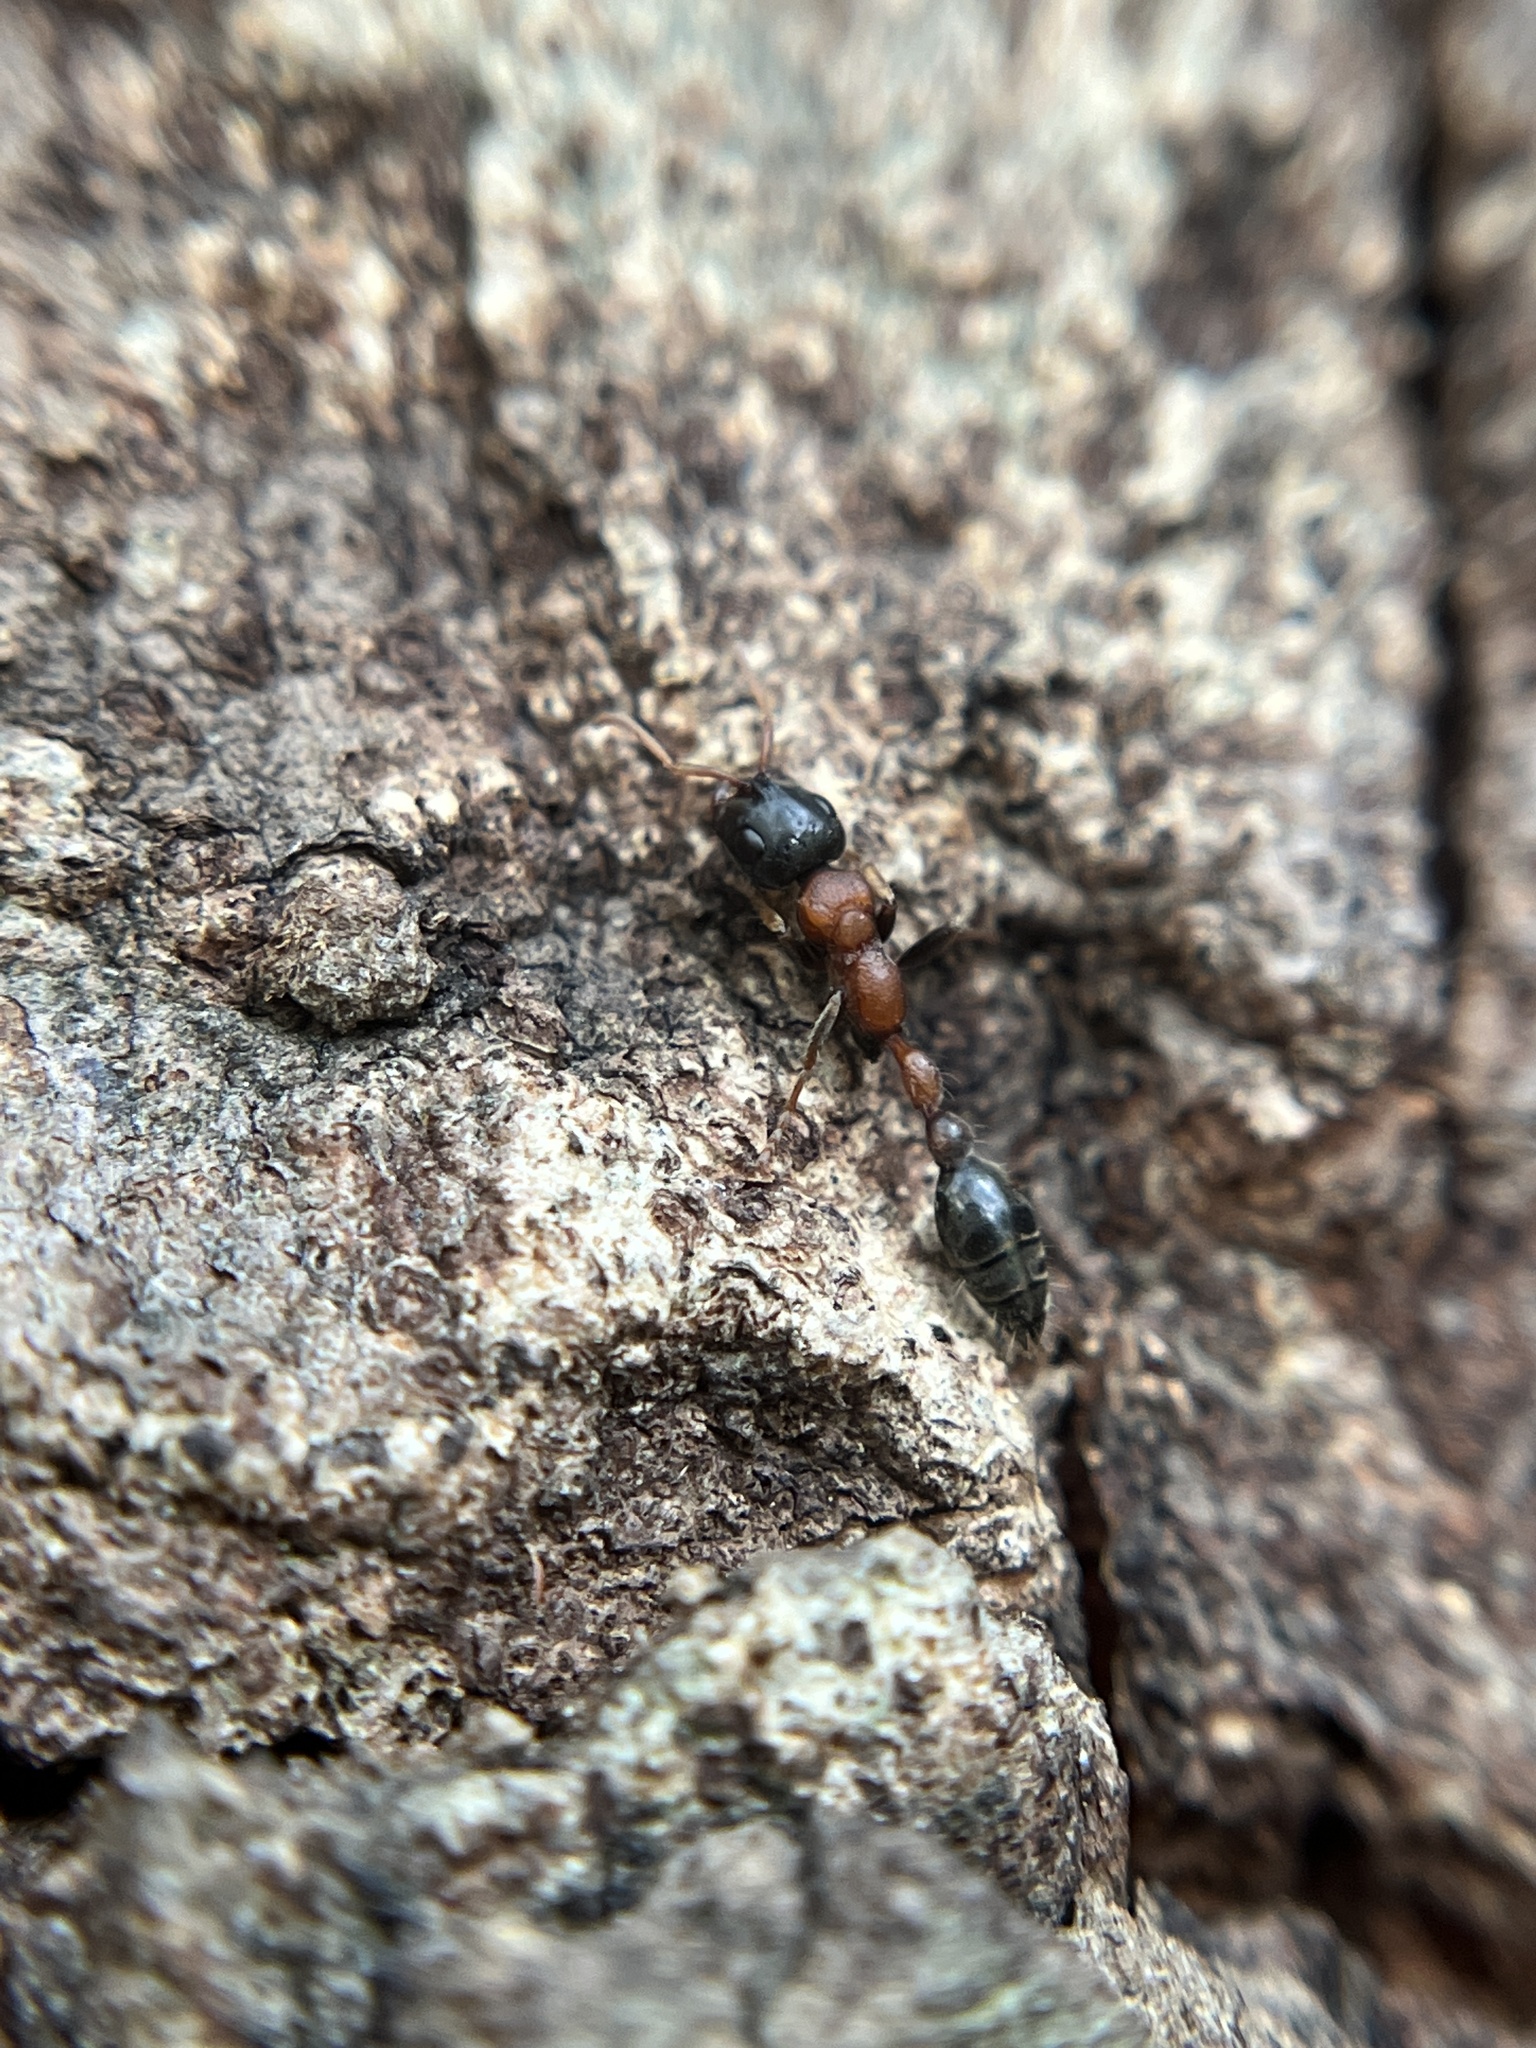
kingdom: Animalia
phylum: Arthropoda
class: Insecta
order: Hymenoptera
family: Formicidae
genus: Tetraponera
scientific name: Tetraponera rufonigra
